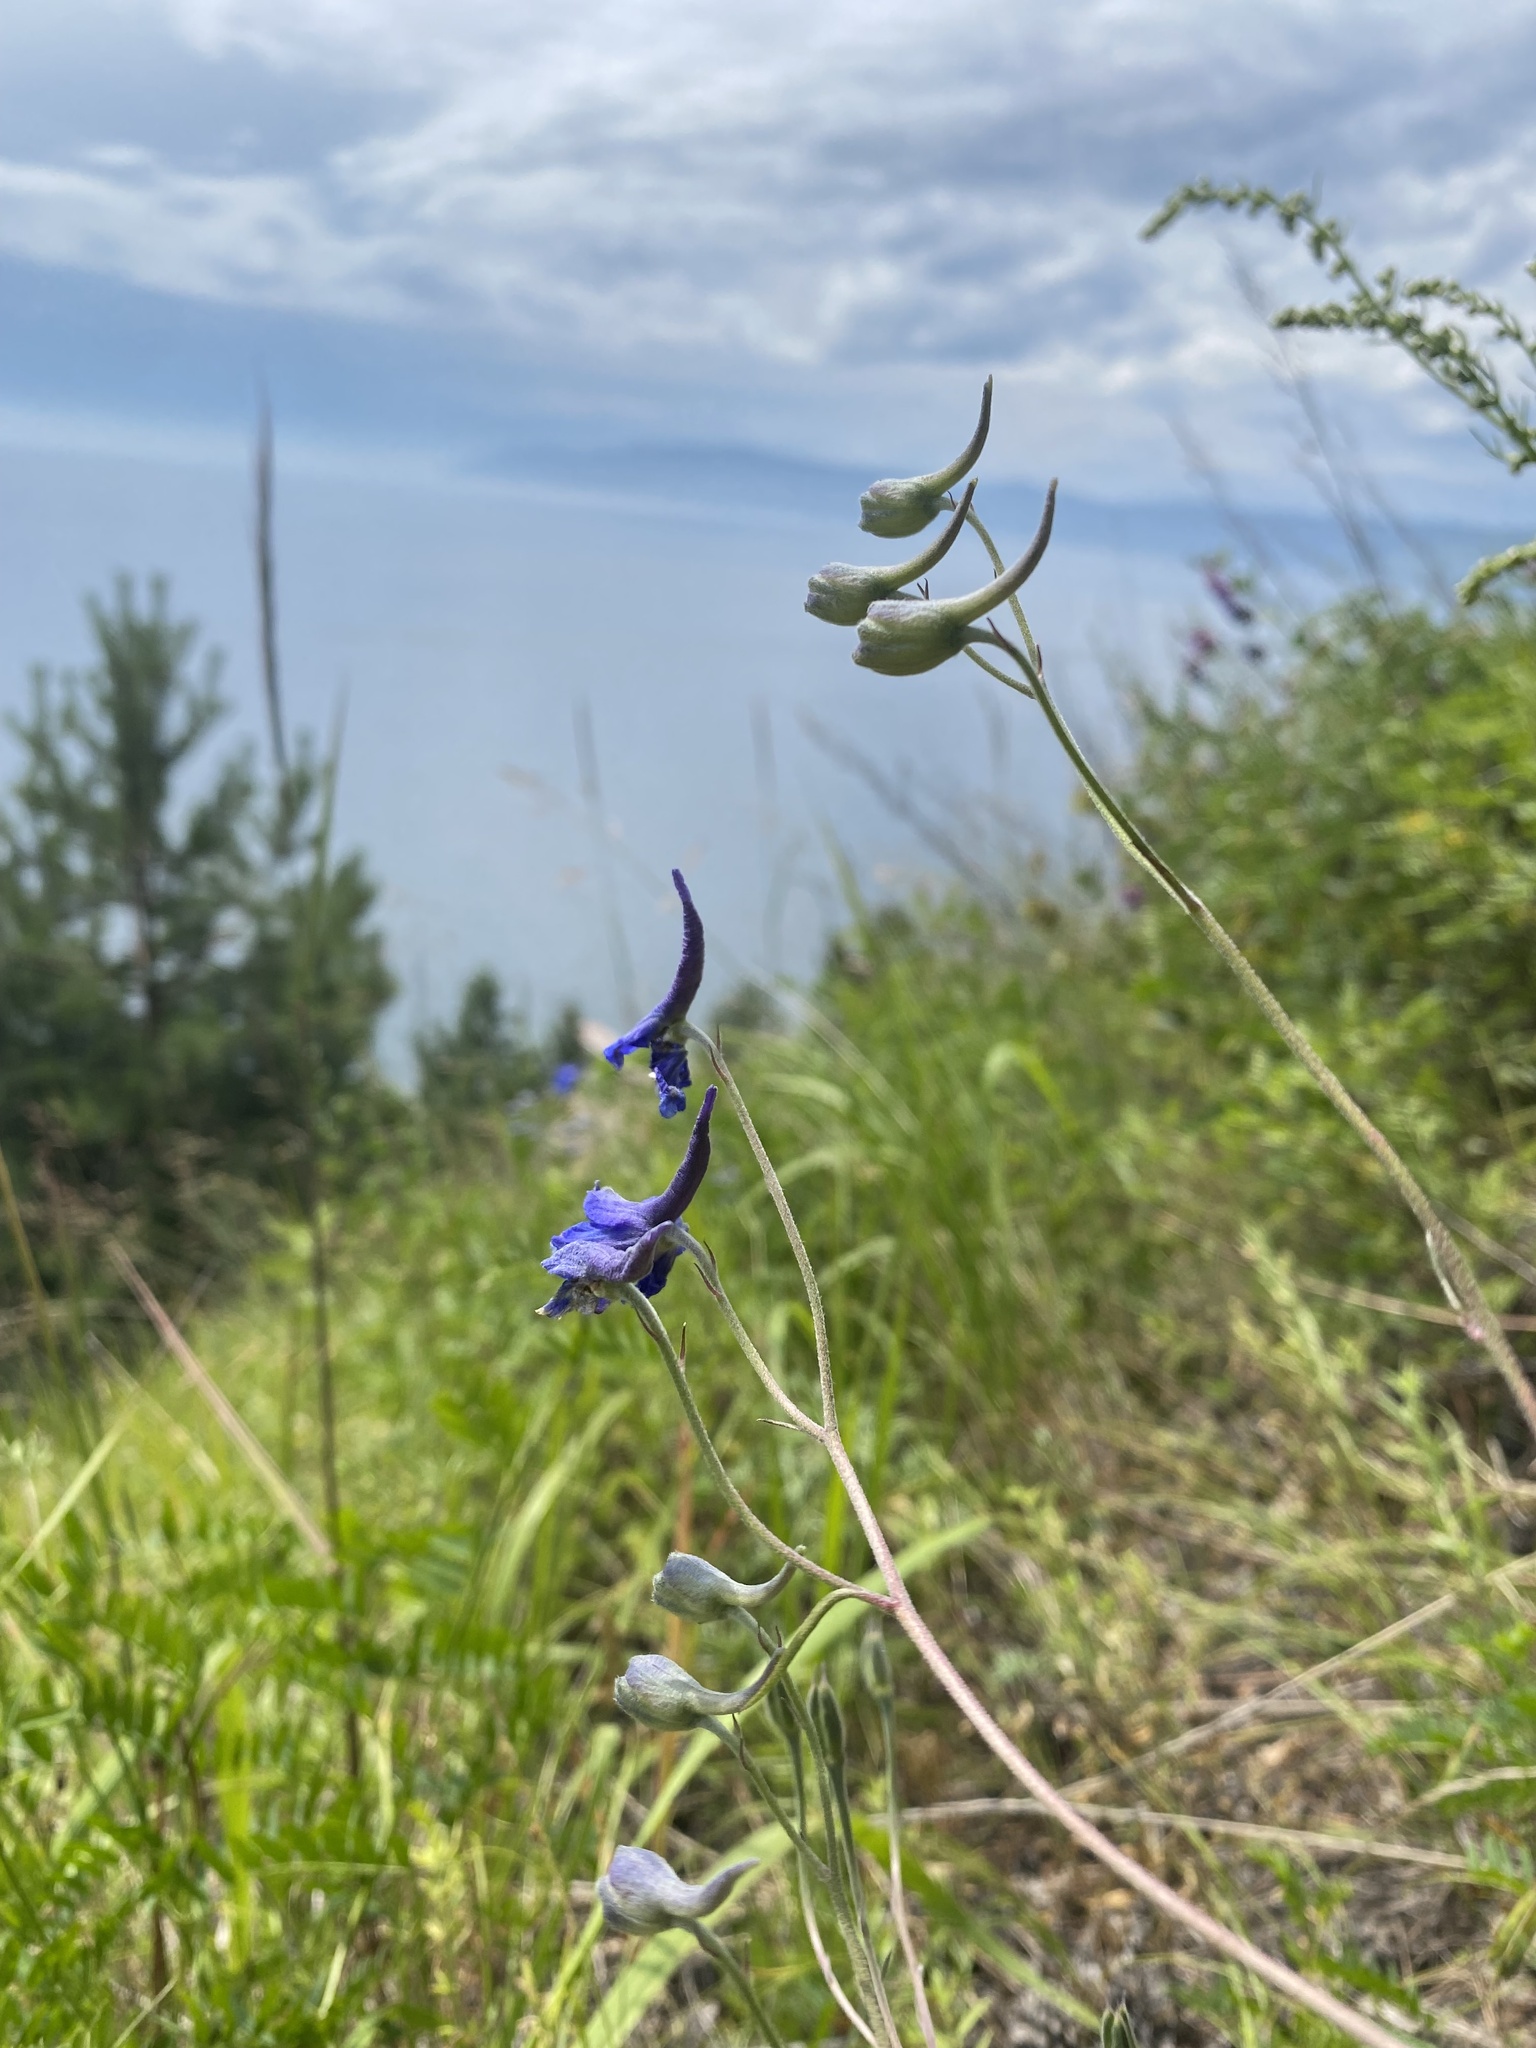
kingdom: Plantae
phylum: Tracheophyta
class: Magnoliopsida
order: Ranunculales
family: Ranunculaceae
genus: Delphinium
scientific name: Delphinium grandiflorum
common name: Siberian larkspur
